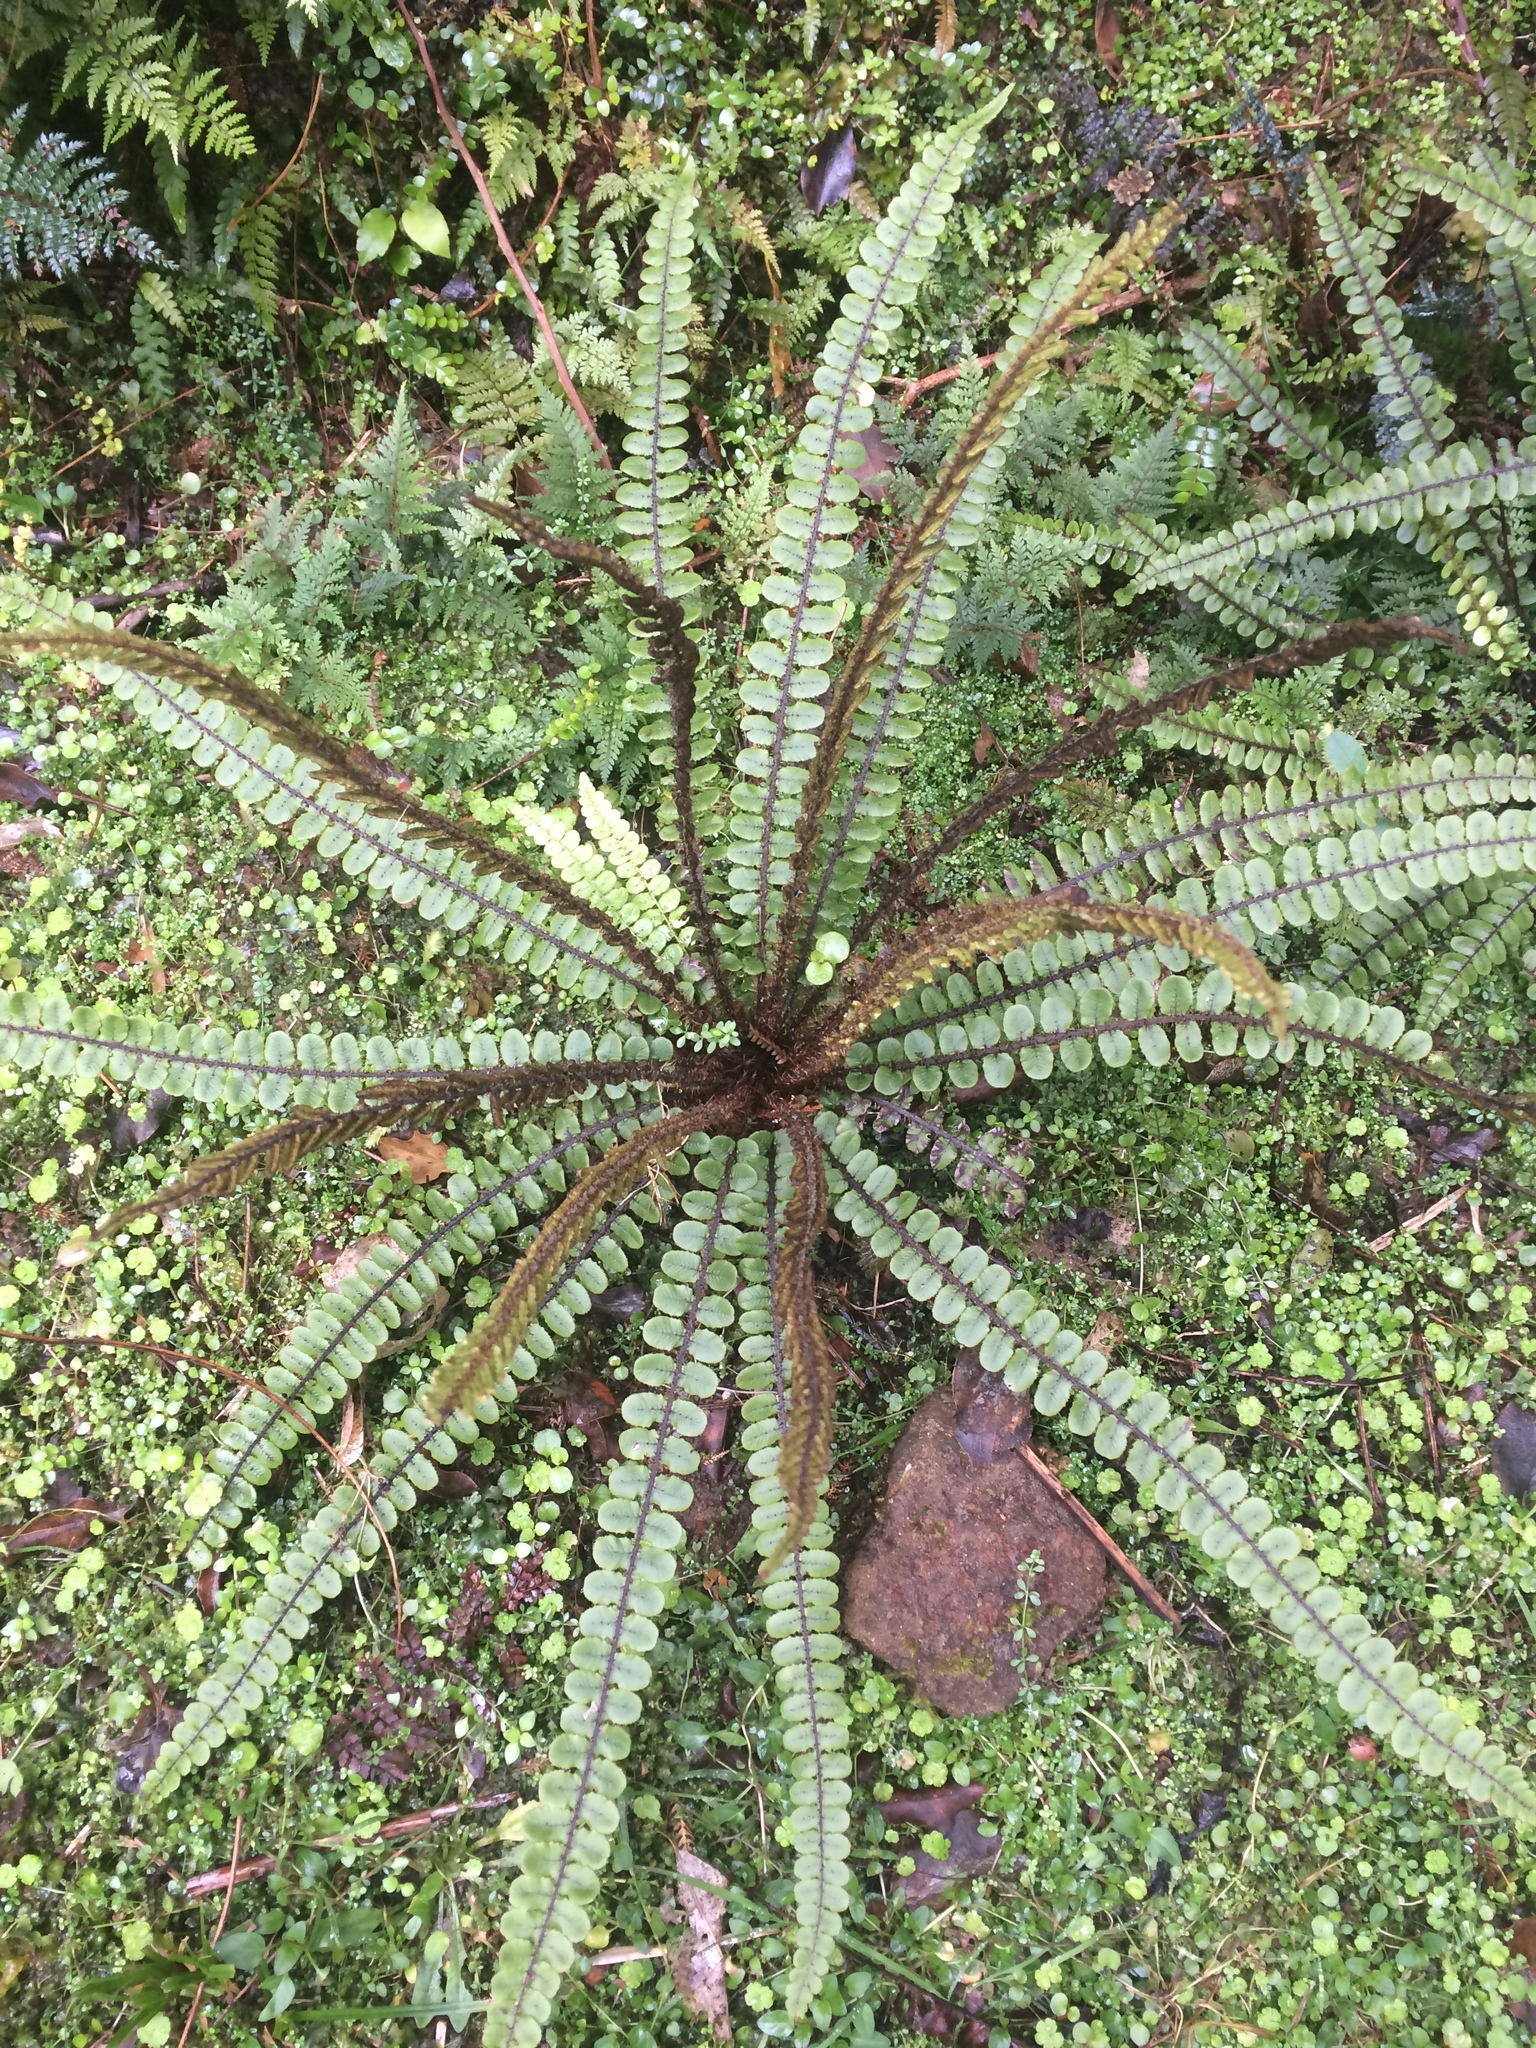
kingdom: Plantae
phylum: Tracheophyta
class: Polypodiopsida
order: Polypodiales
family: Blechnaceae
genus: Cranfillia
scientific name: Cranfillia fluviatilis
